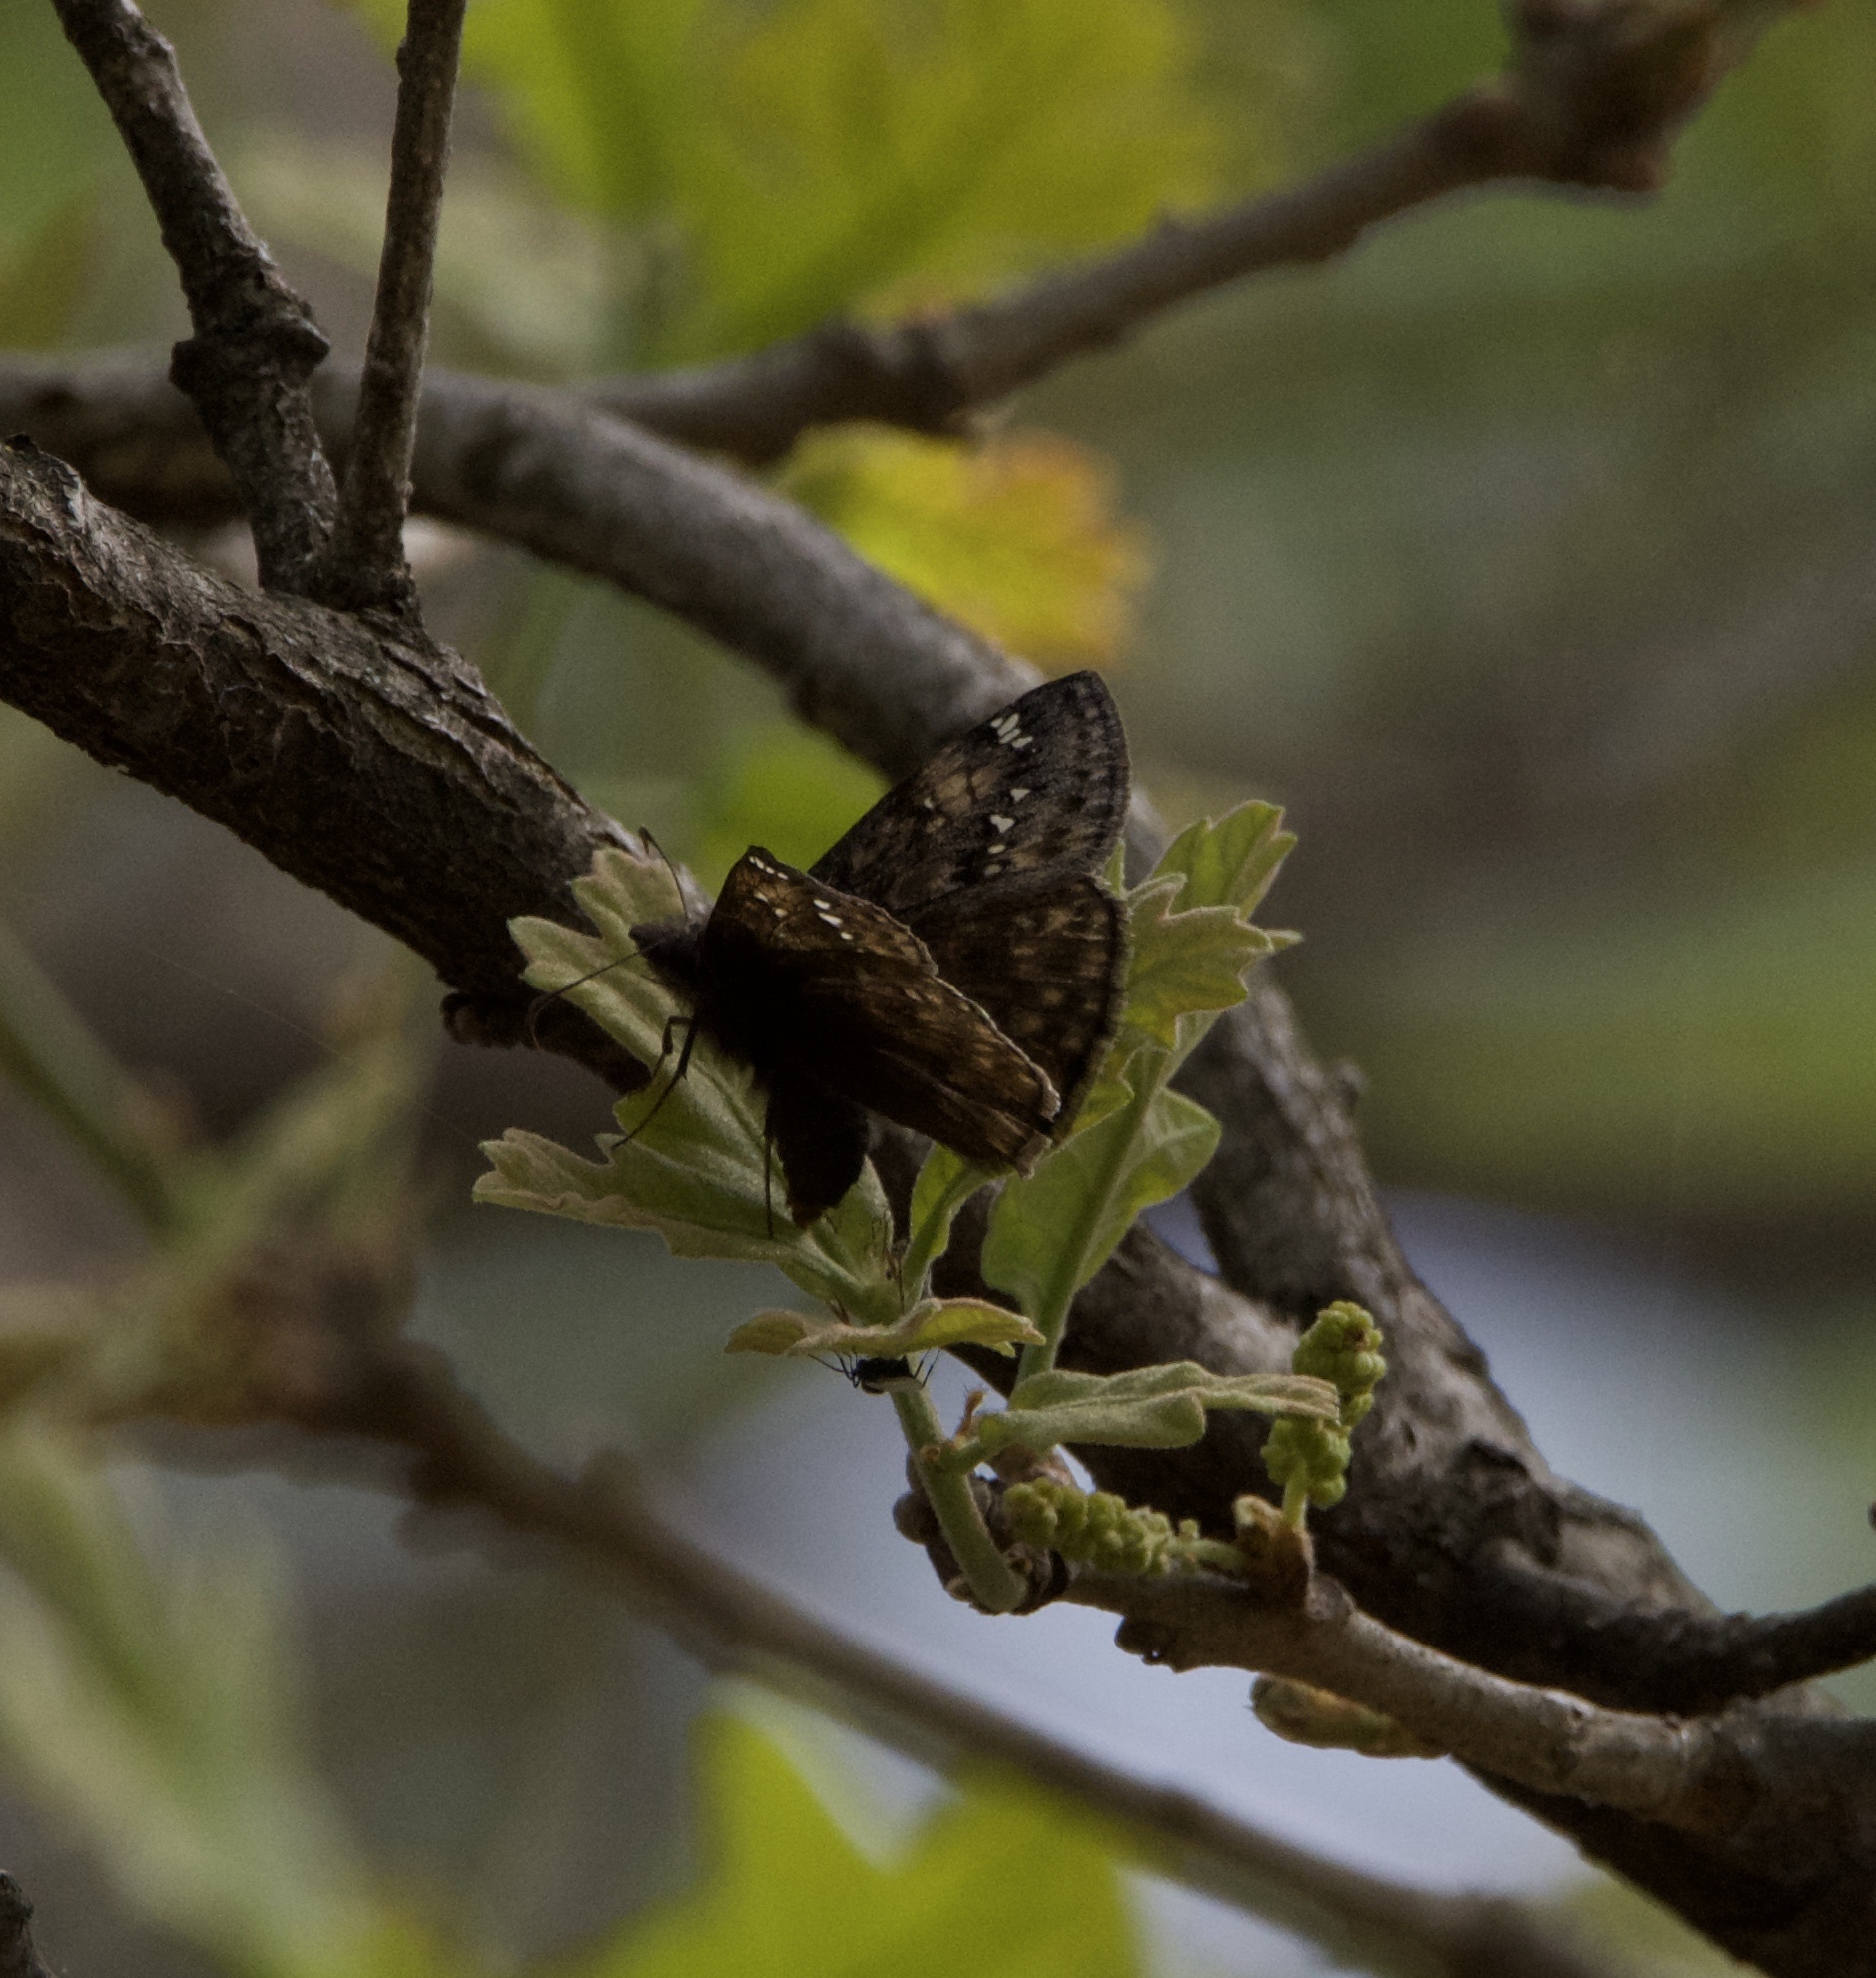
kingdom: Animalia
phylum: Arthropoda
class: Insecta
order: Lepidoptera
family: Hesperiidae
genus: Erynnis
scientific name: Erynnis juvenalis
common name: Juvenal's duskywing
